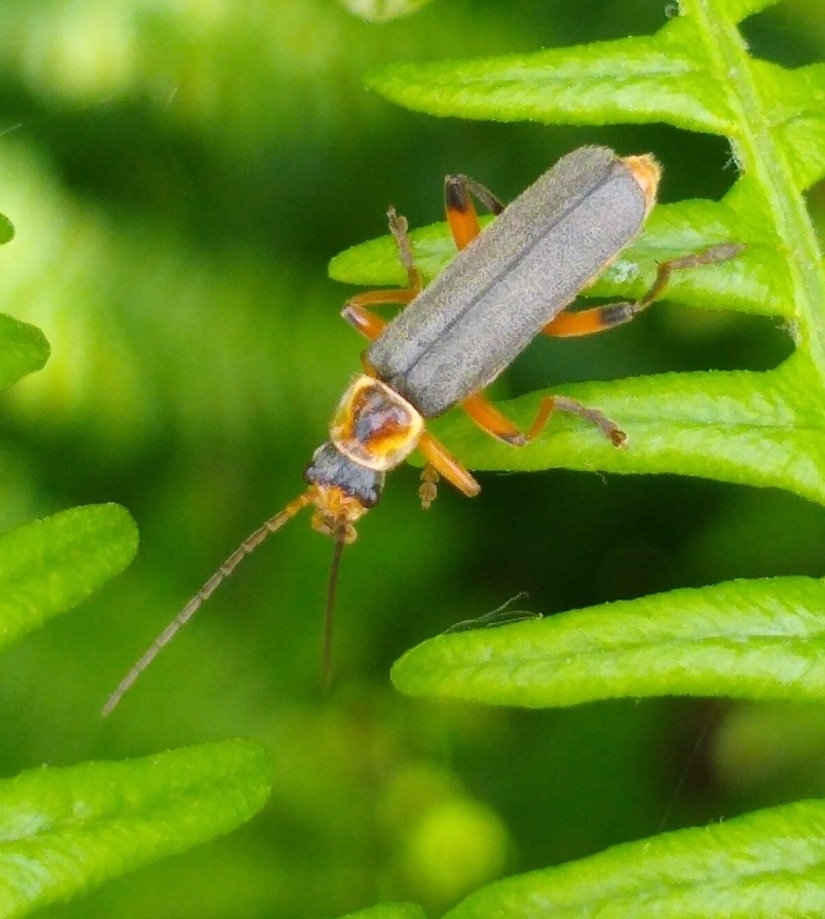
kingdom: Animalia
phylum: Arthropoda
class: Insecta
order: Coleoptera
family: Cantharidae
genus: Cantharis
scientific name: Cantharis nigricans
